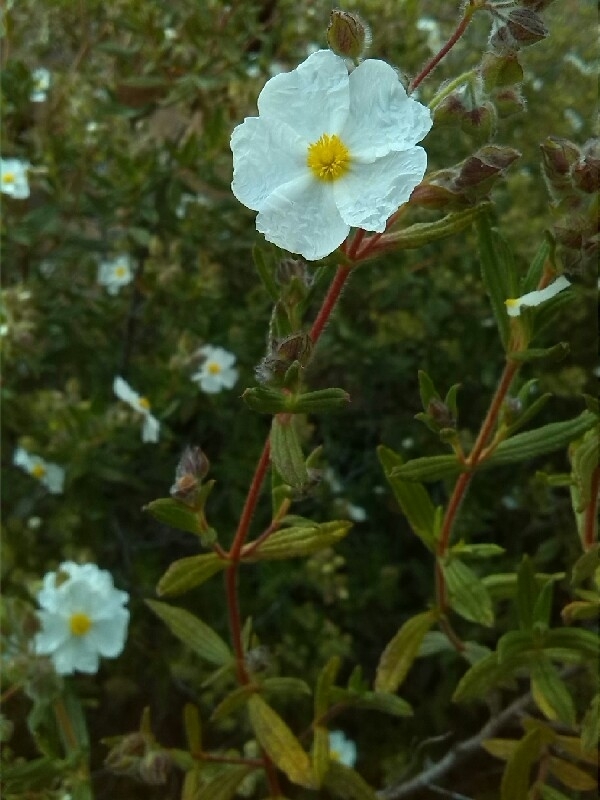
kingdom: Plantae
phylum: Tracheophyta
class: Magnoliopsida
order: Malvales
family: Cistaceae
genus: Cistus
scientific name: Cistus monspeliensis
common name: Montpelier cistus
